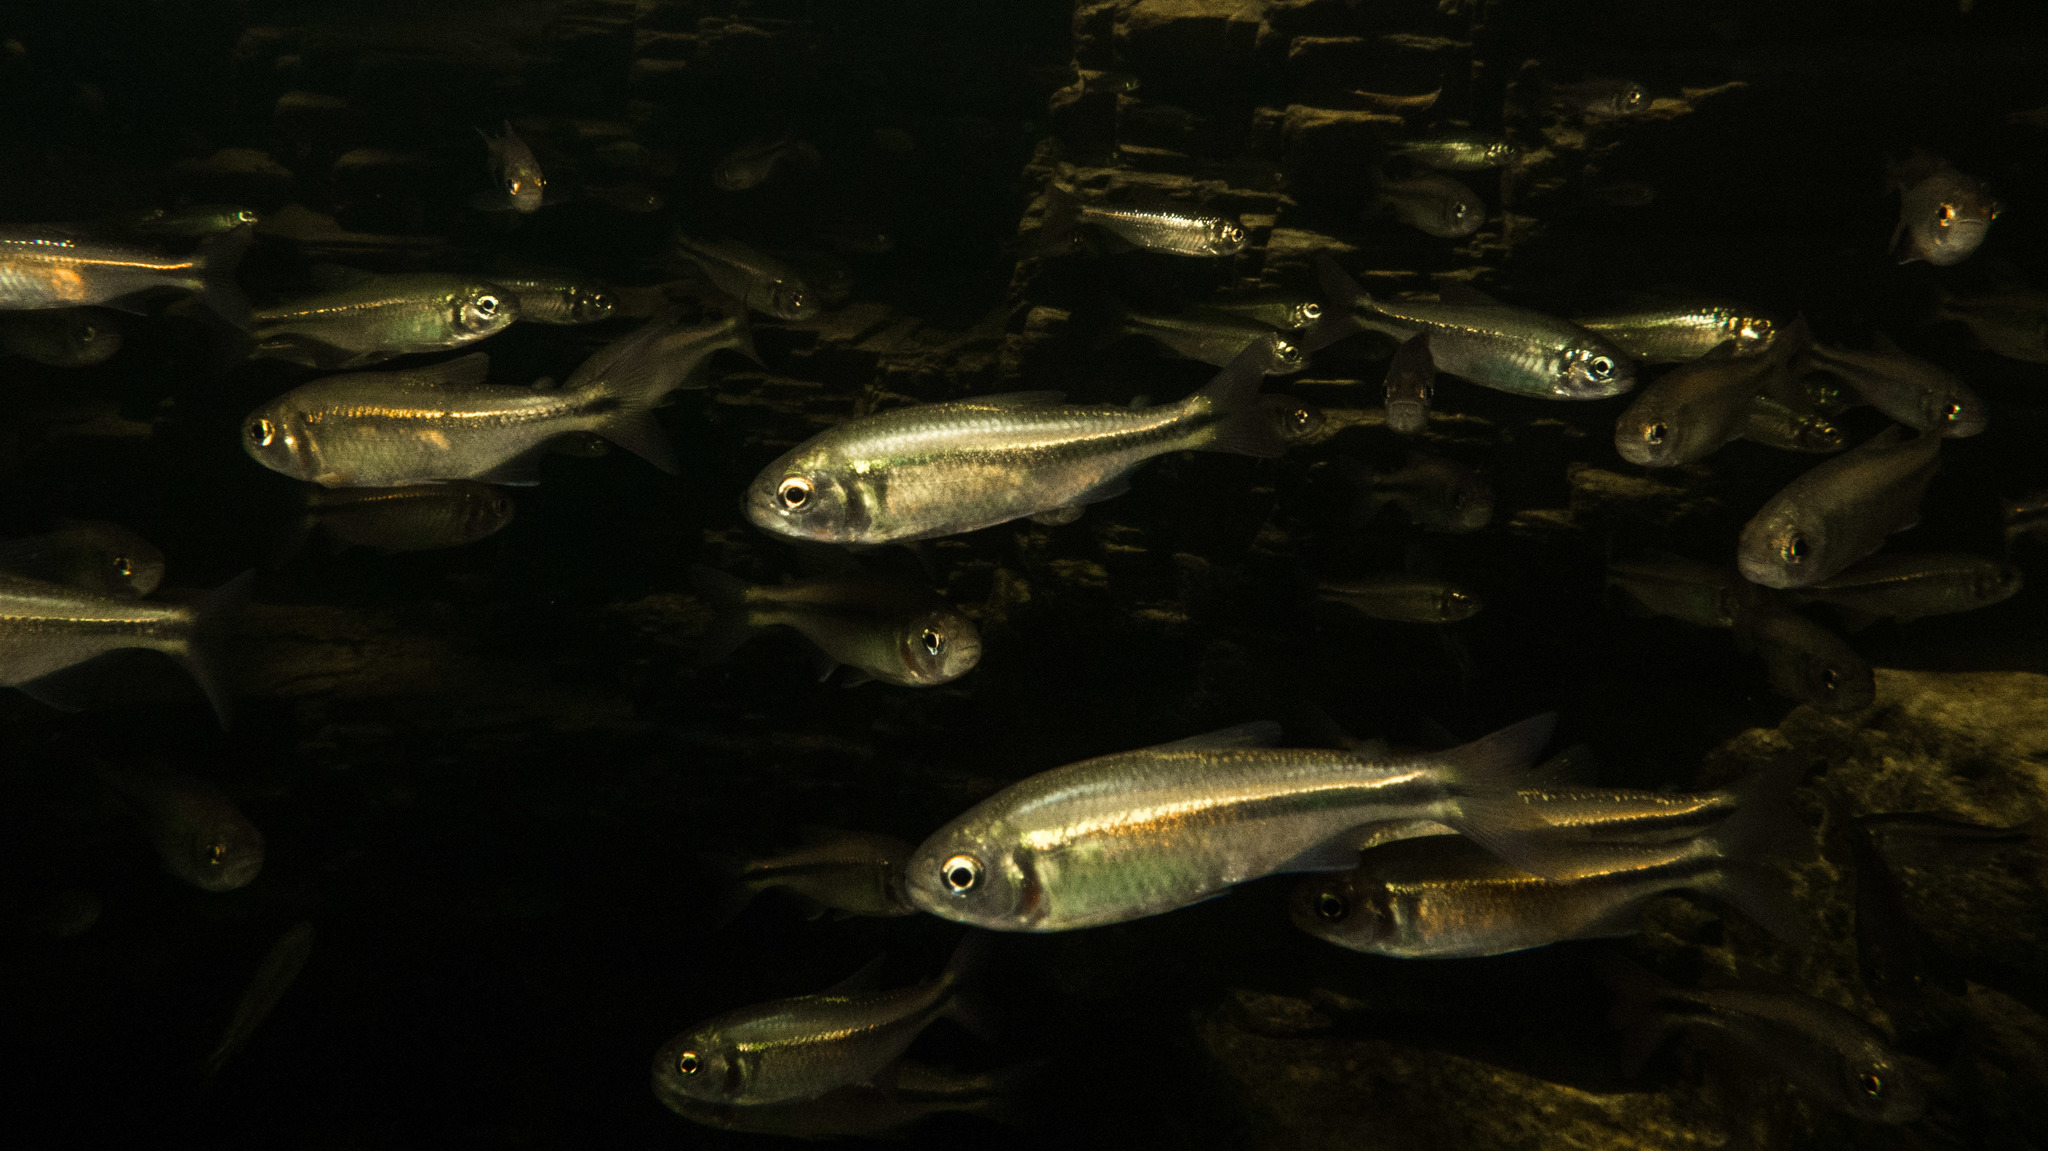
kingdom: Animalia
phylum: Chordata
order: Characiformes
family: Characidae
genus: Psalidodon
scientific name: Psalidodon paranae
